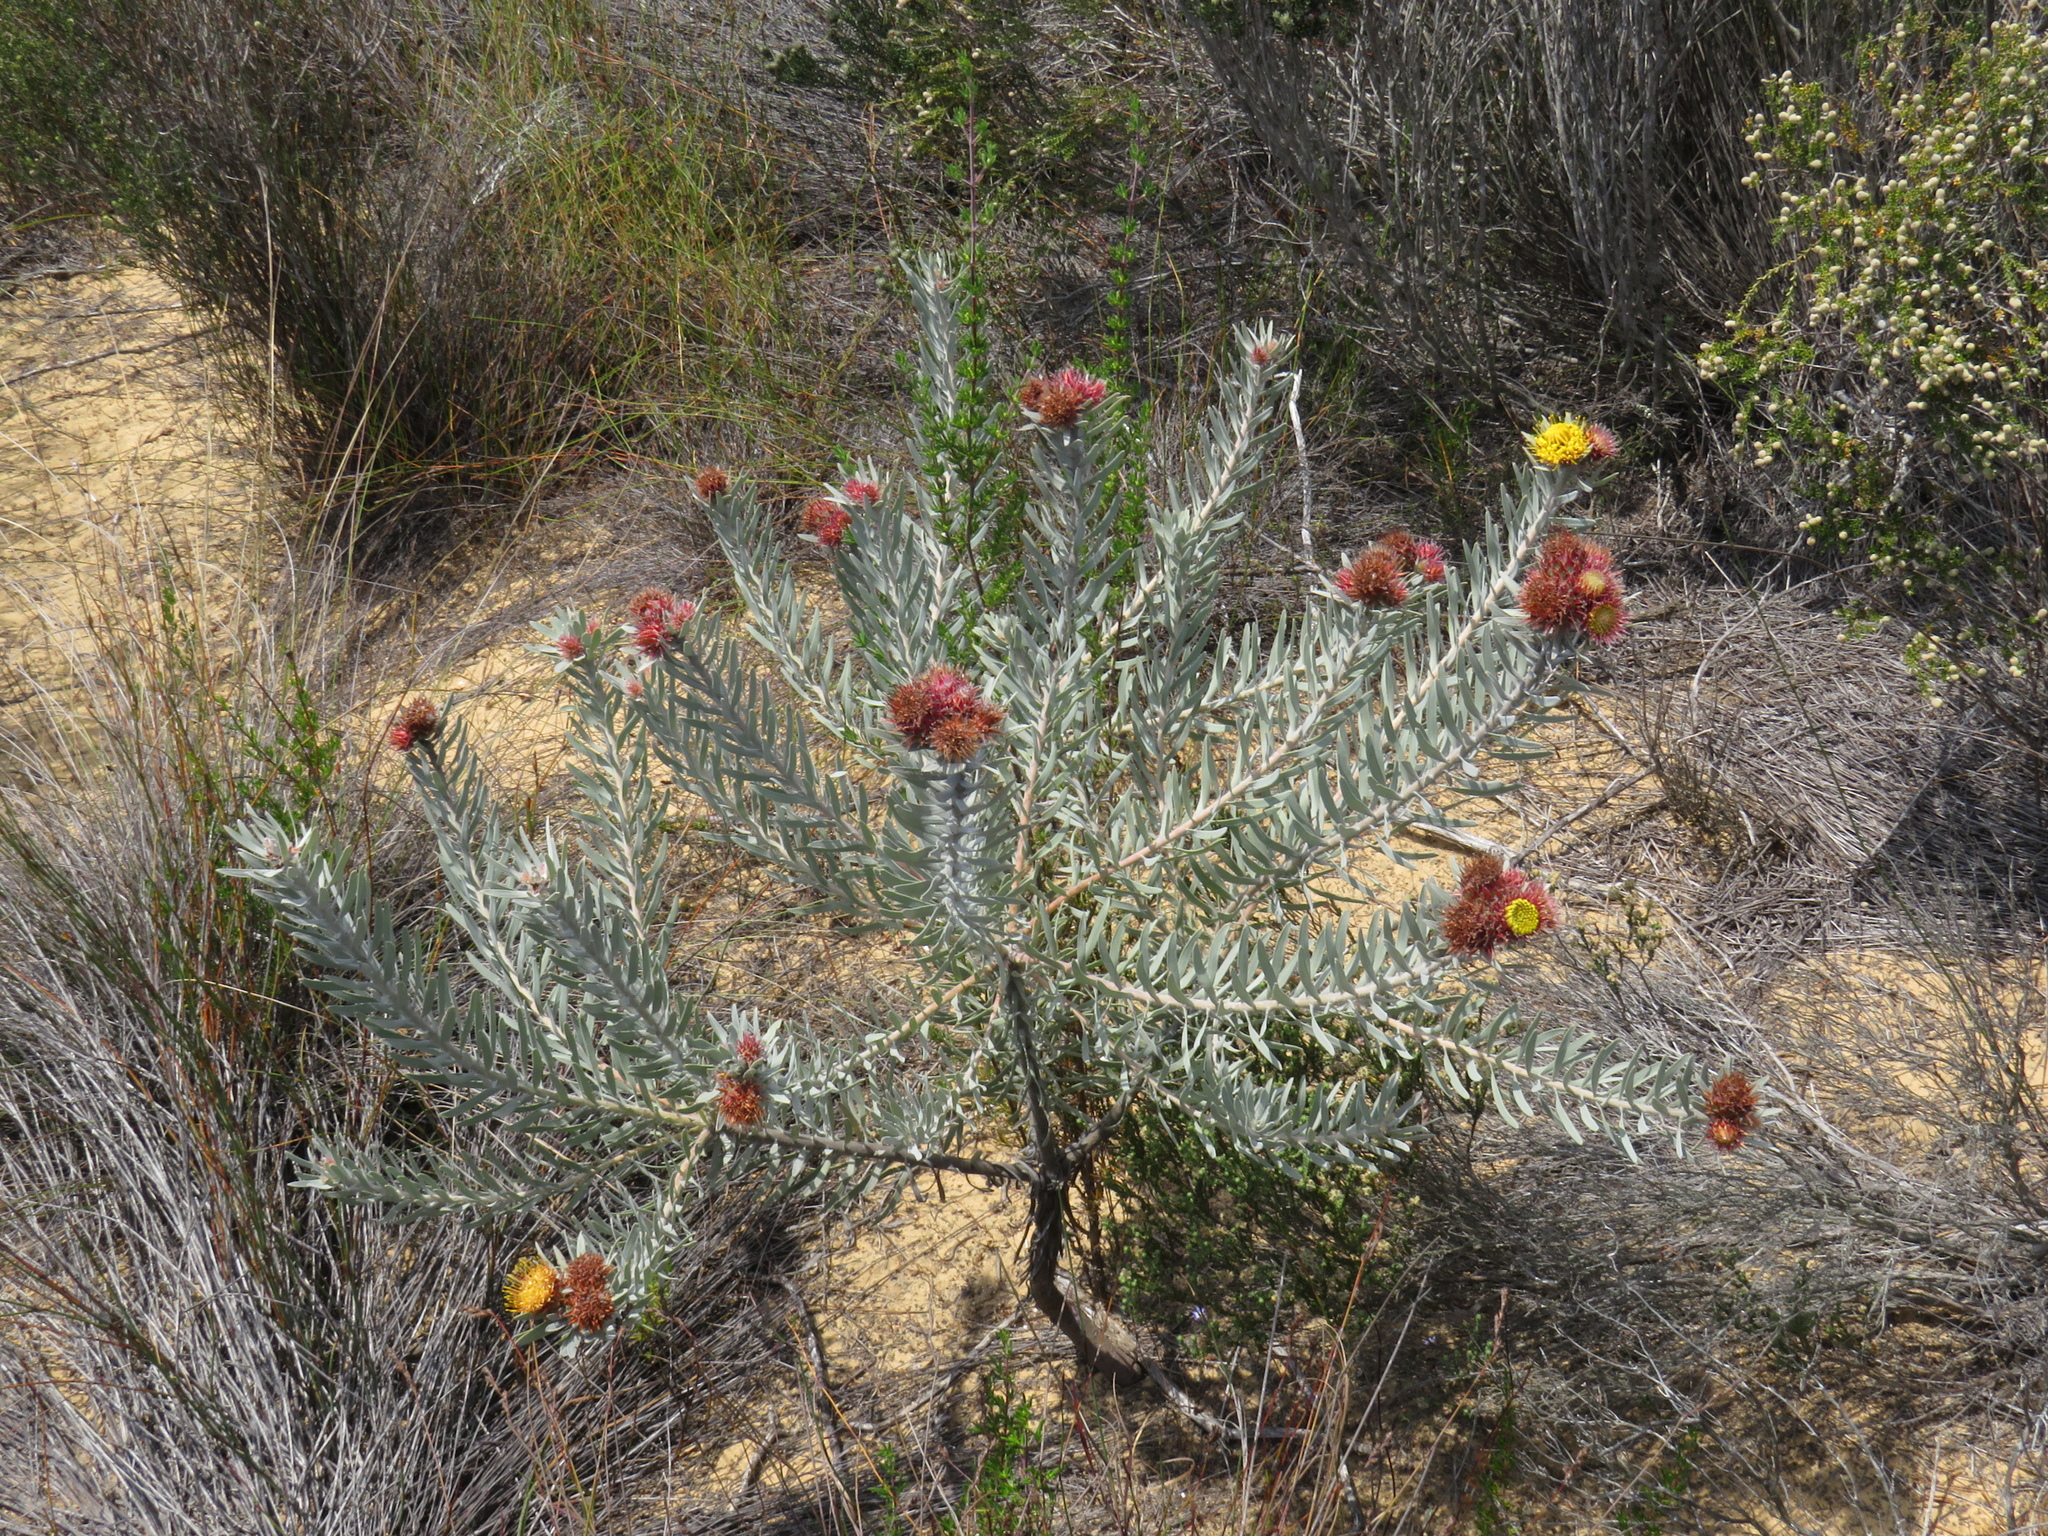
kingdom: Plantae
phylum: Tracheophyta
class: Magnoliopsida
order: Proteales
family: Proteaceae
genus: Leucospermum
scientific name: Leucospermum parile
